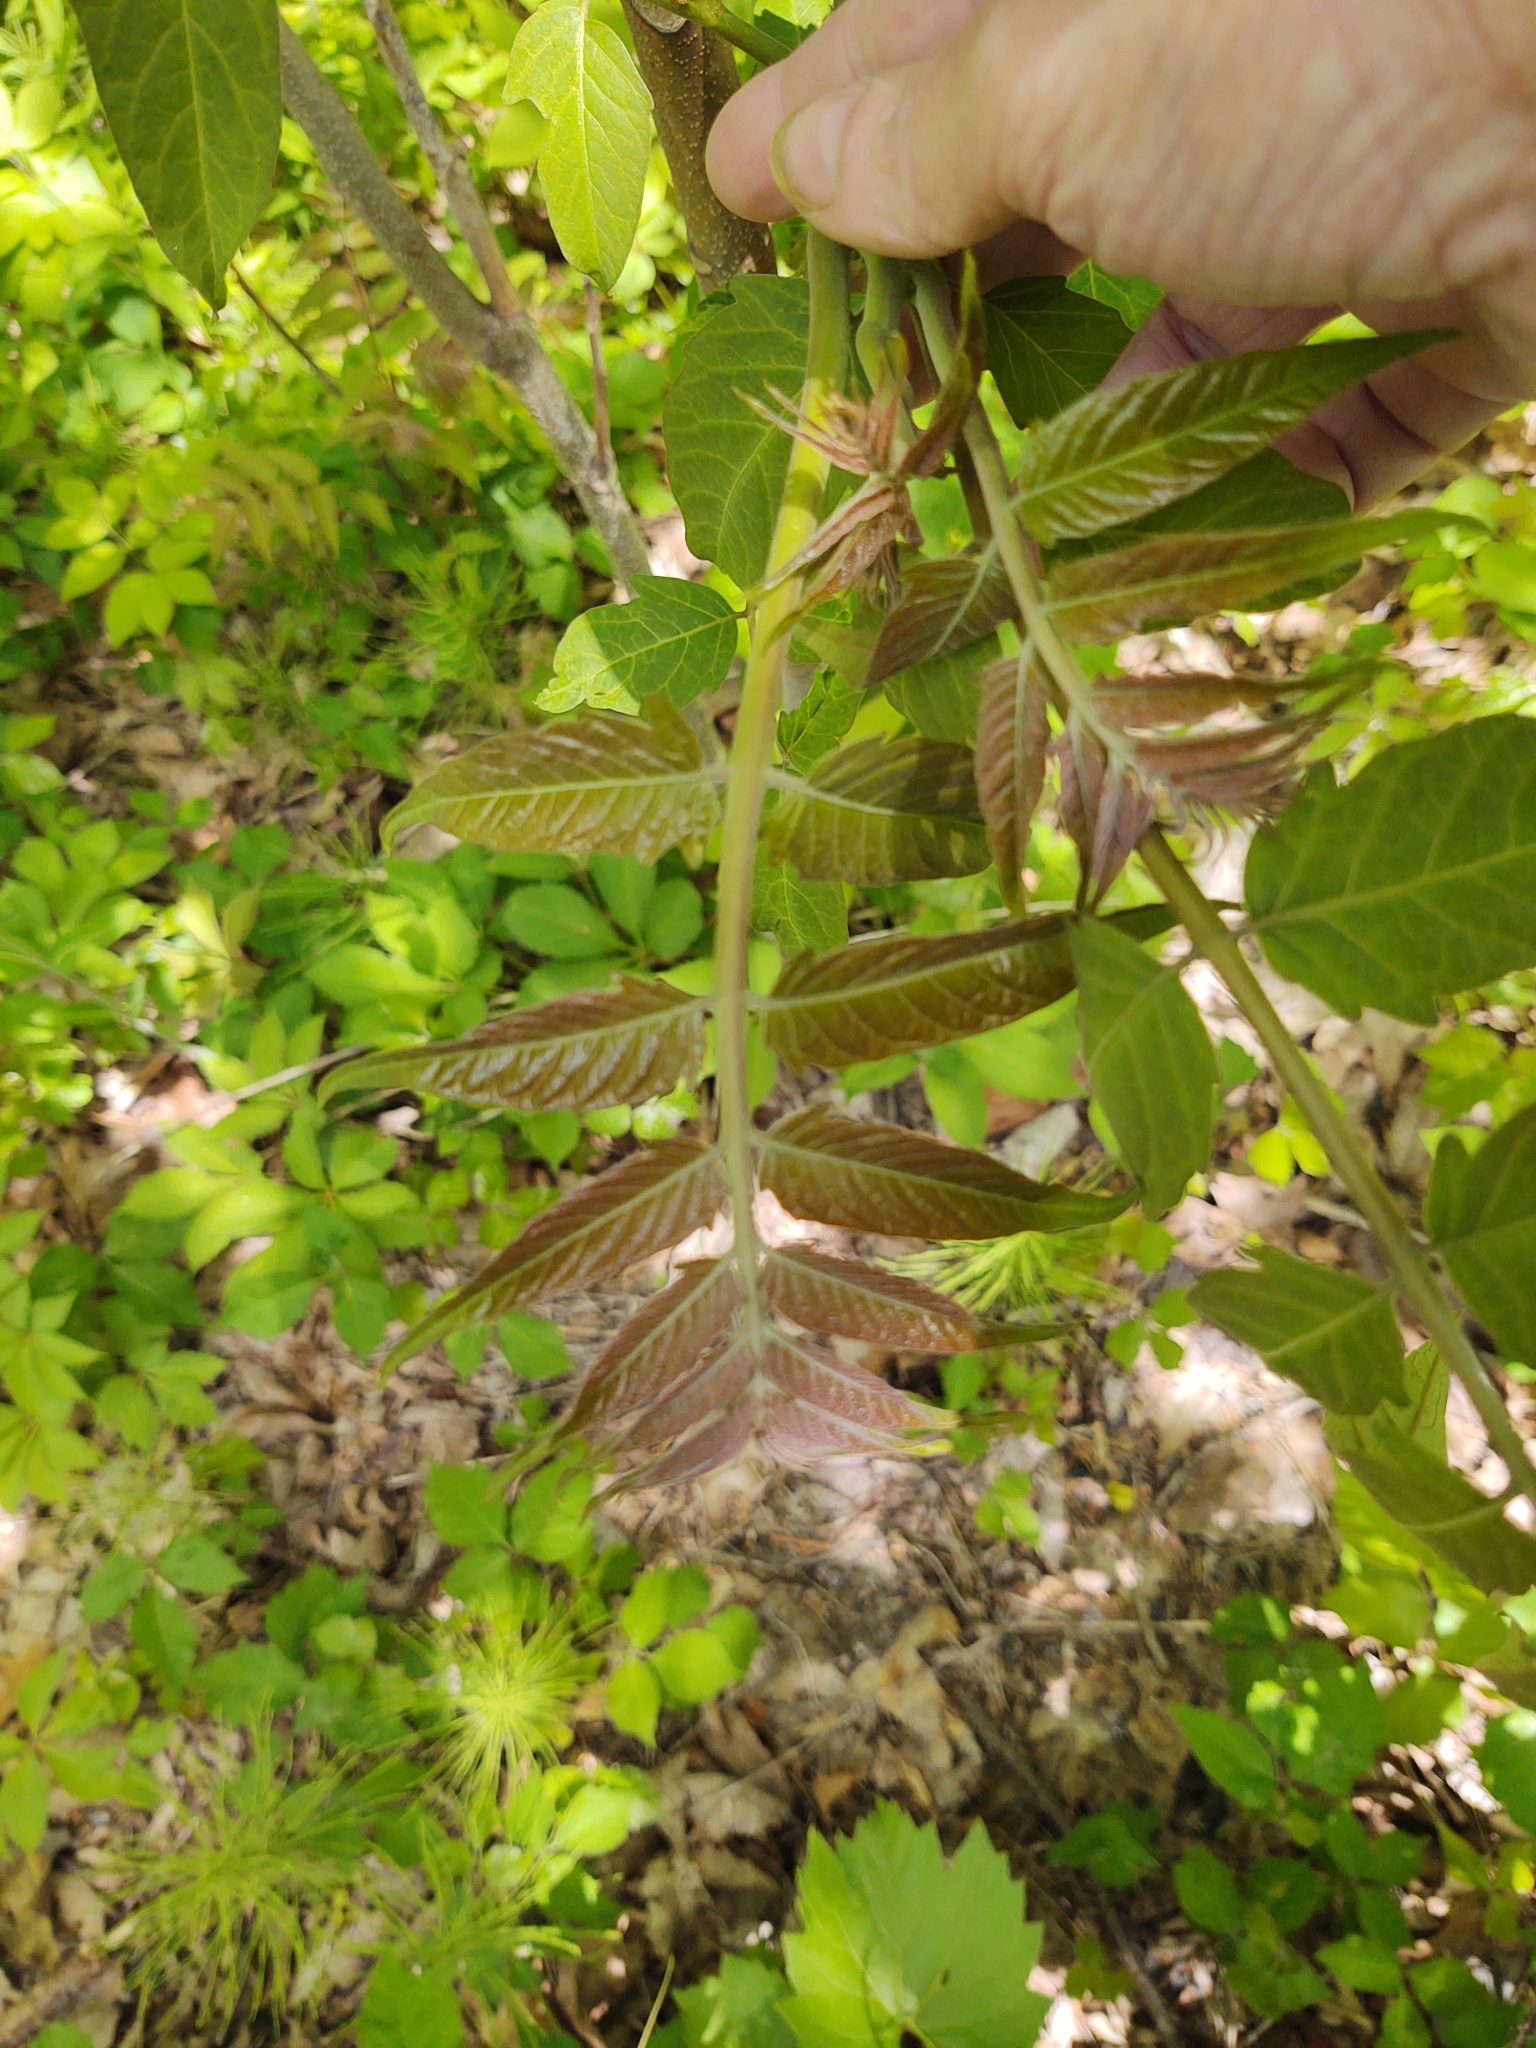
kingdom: Plantae
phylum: Tracheophyta
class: Magnoliopsida
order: Sapindales
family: Simaroubaceae
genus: Ailanthus
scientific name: Ailanthus altissima
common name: Tree-of-heaven
